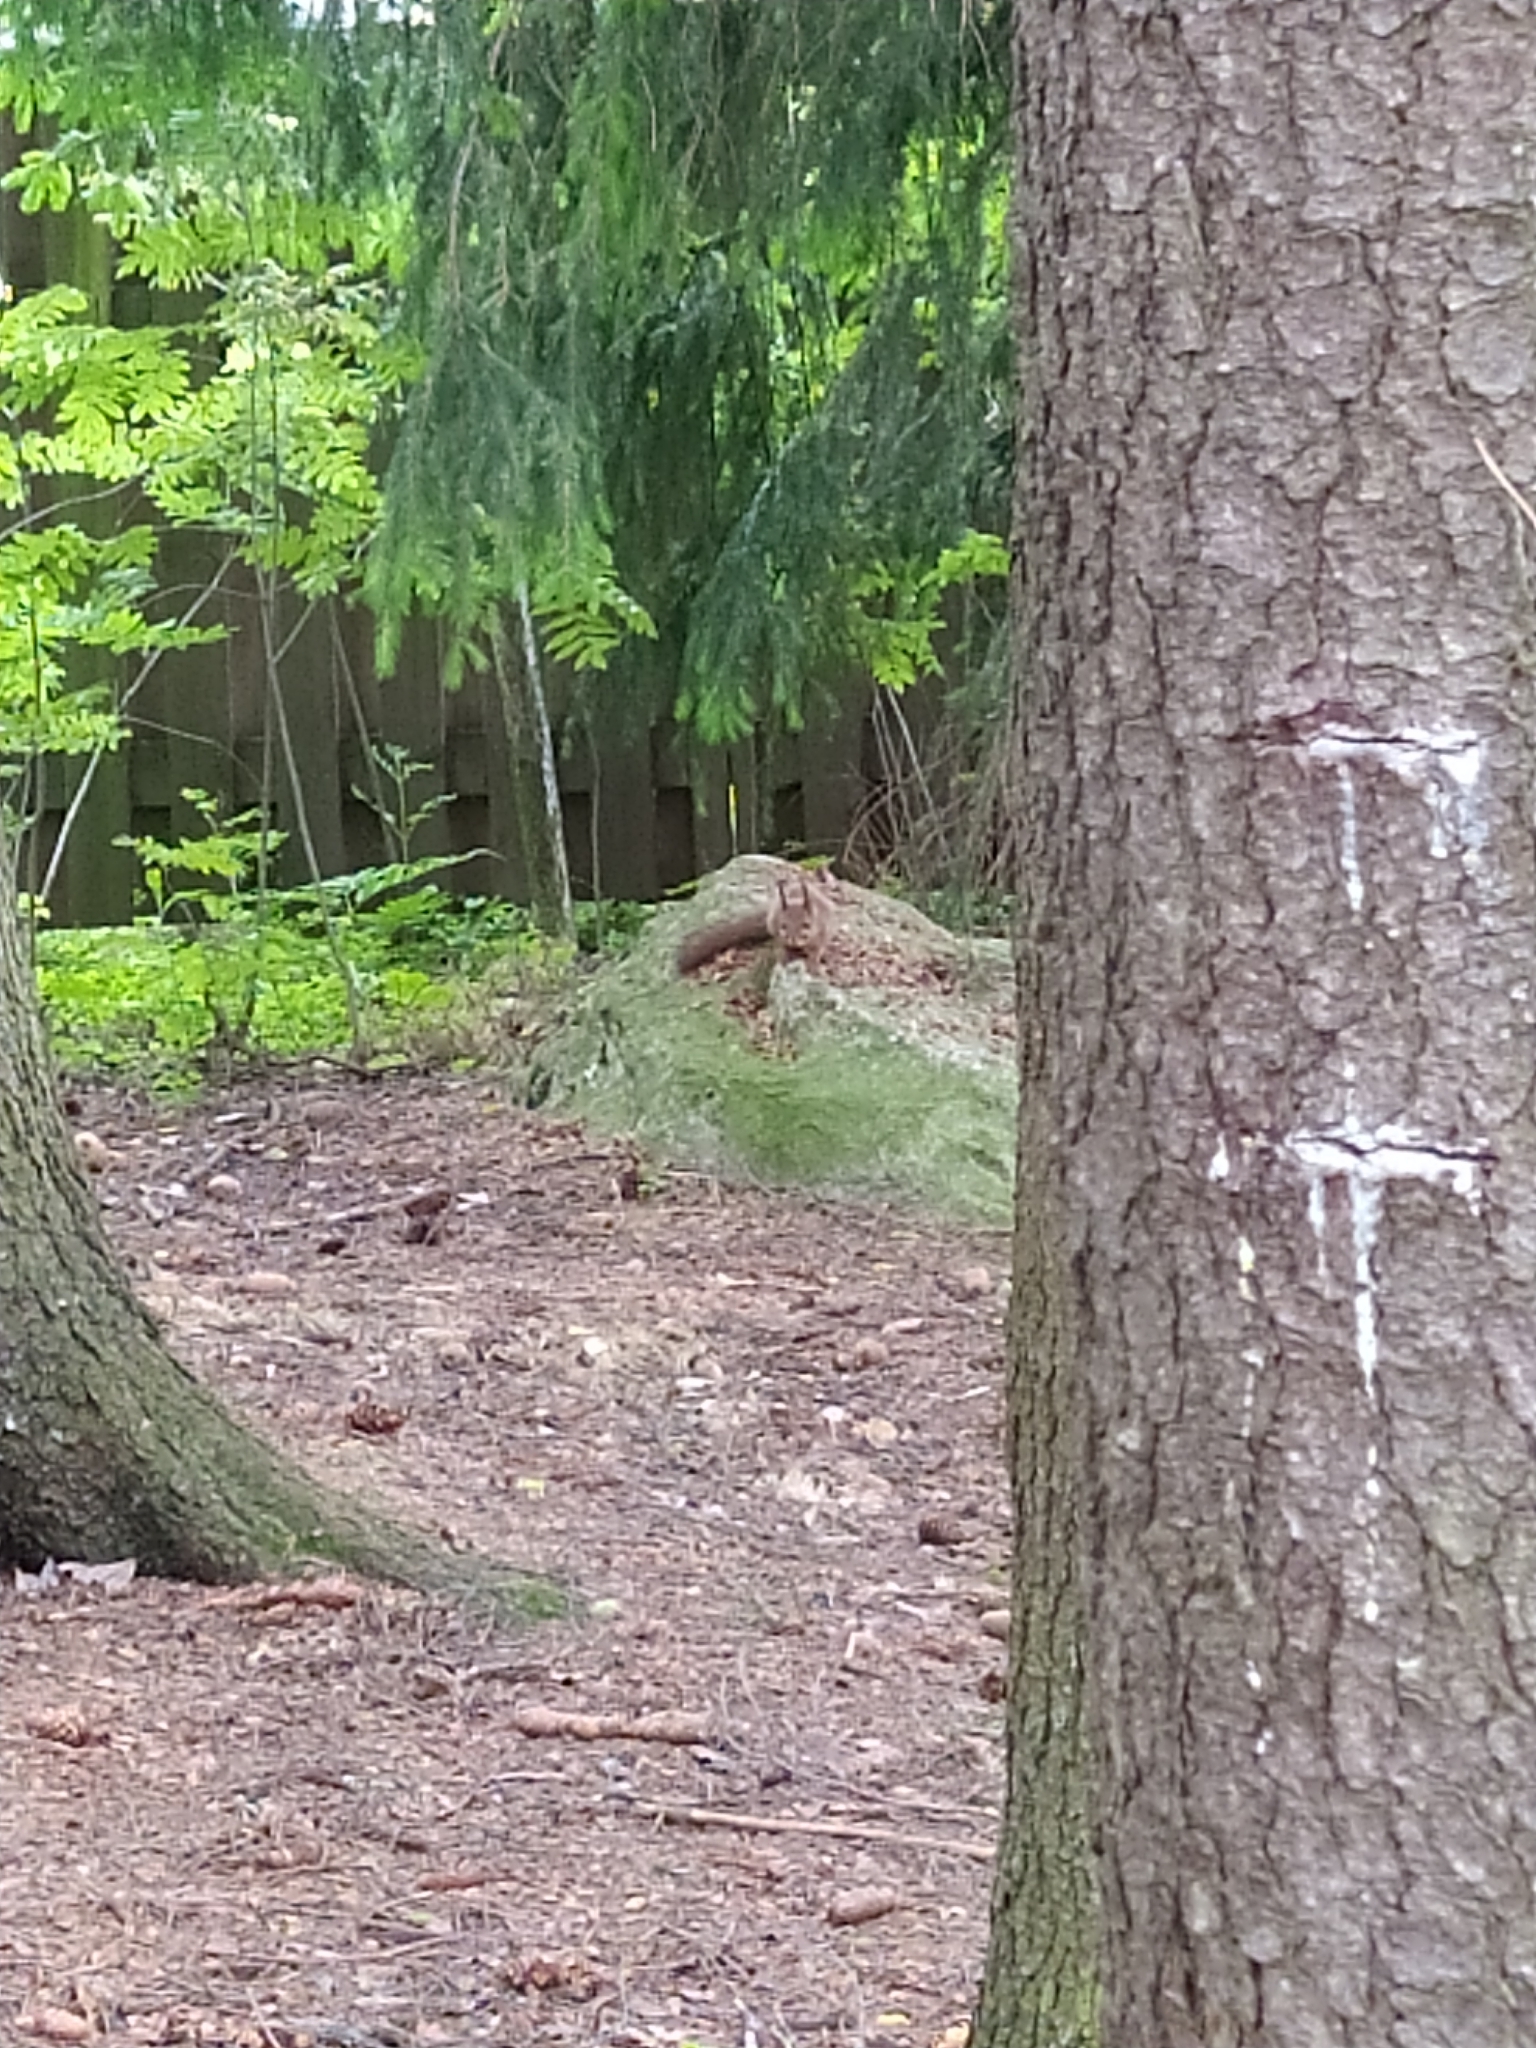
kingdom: Animalia
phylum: Chordata
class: Mammalia
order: Rodentia
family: Sciuridae
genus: Sciurus
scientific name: Sciurus vulgaris
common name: Eurasian red squirrel
